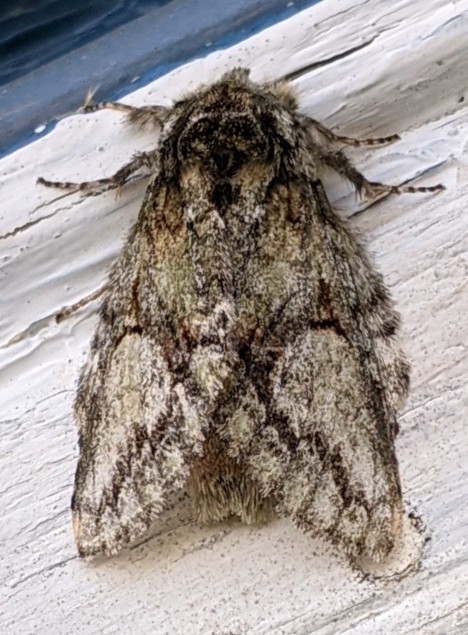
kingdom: Animalia
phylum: Arthropoda
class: Insecta
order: Lepidoptera
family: Notodontidae
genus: Heterocampa
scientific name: Heterocampa
